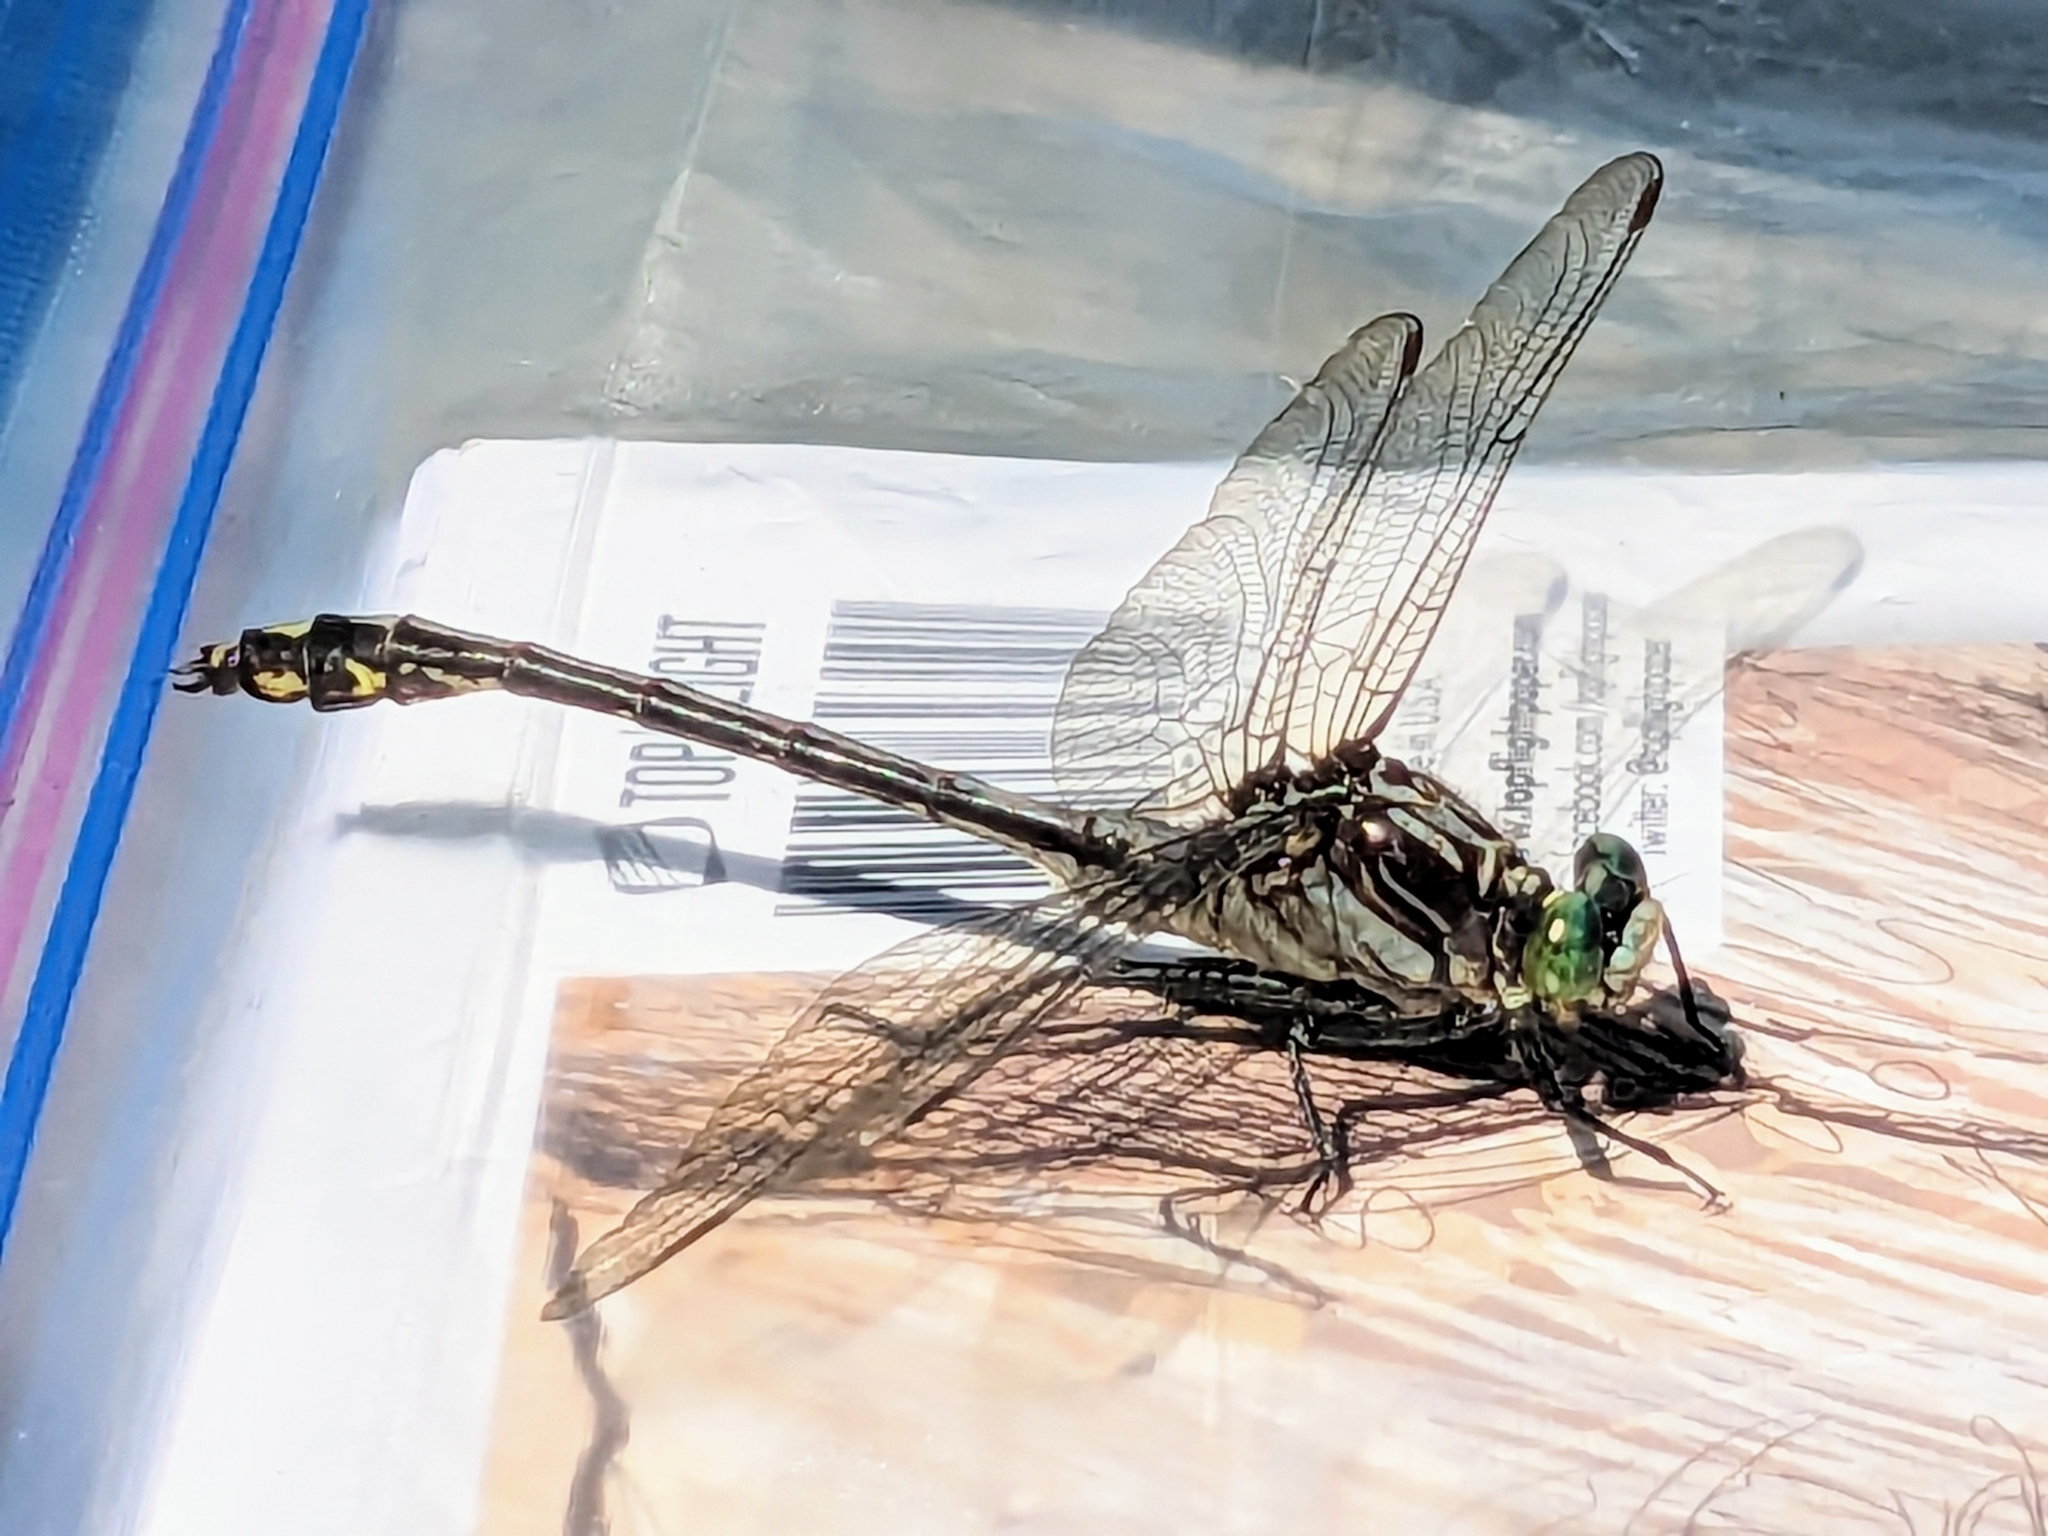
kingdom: Animalia
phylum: Arthropoda
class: Insecta
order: Odonata
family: Gomphidae
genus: Dromogomphus
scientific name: Dromogomphus spinosus
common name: Black-shouldered spinyleg
